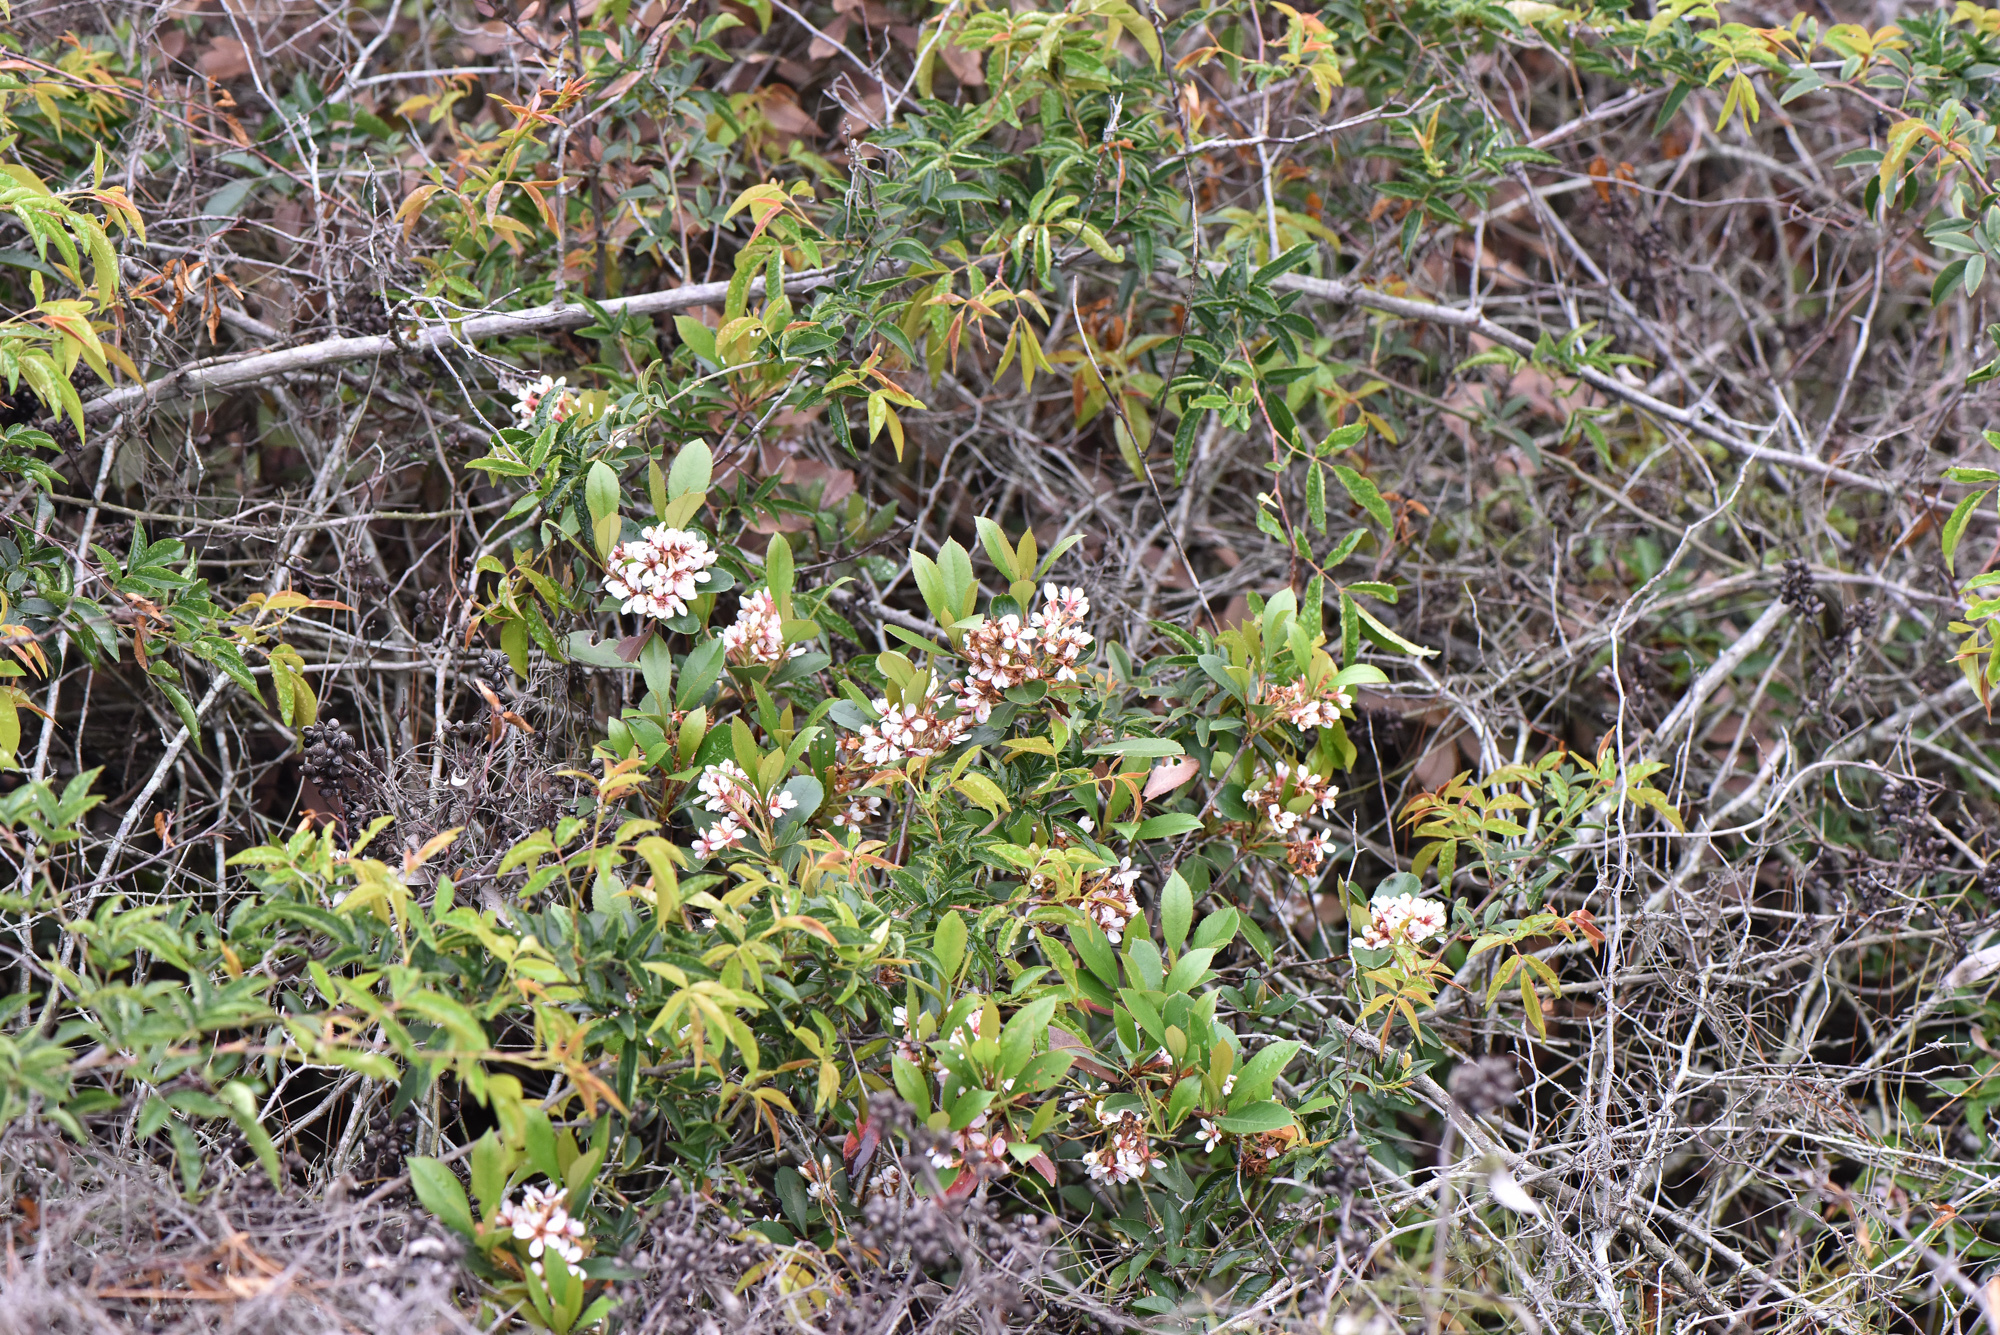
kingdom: Plantae
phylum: Tracheophyta
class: Magnoliopsida
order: Rosales
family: Rosaceae
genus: Rhaphiolepis
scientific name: Rhaphiolepis indica
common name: India-hawthorn
